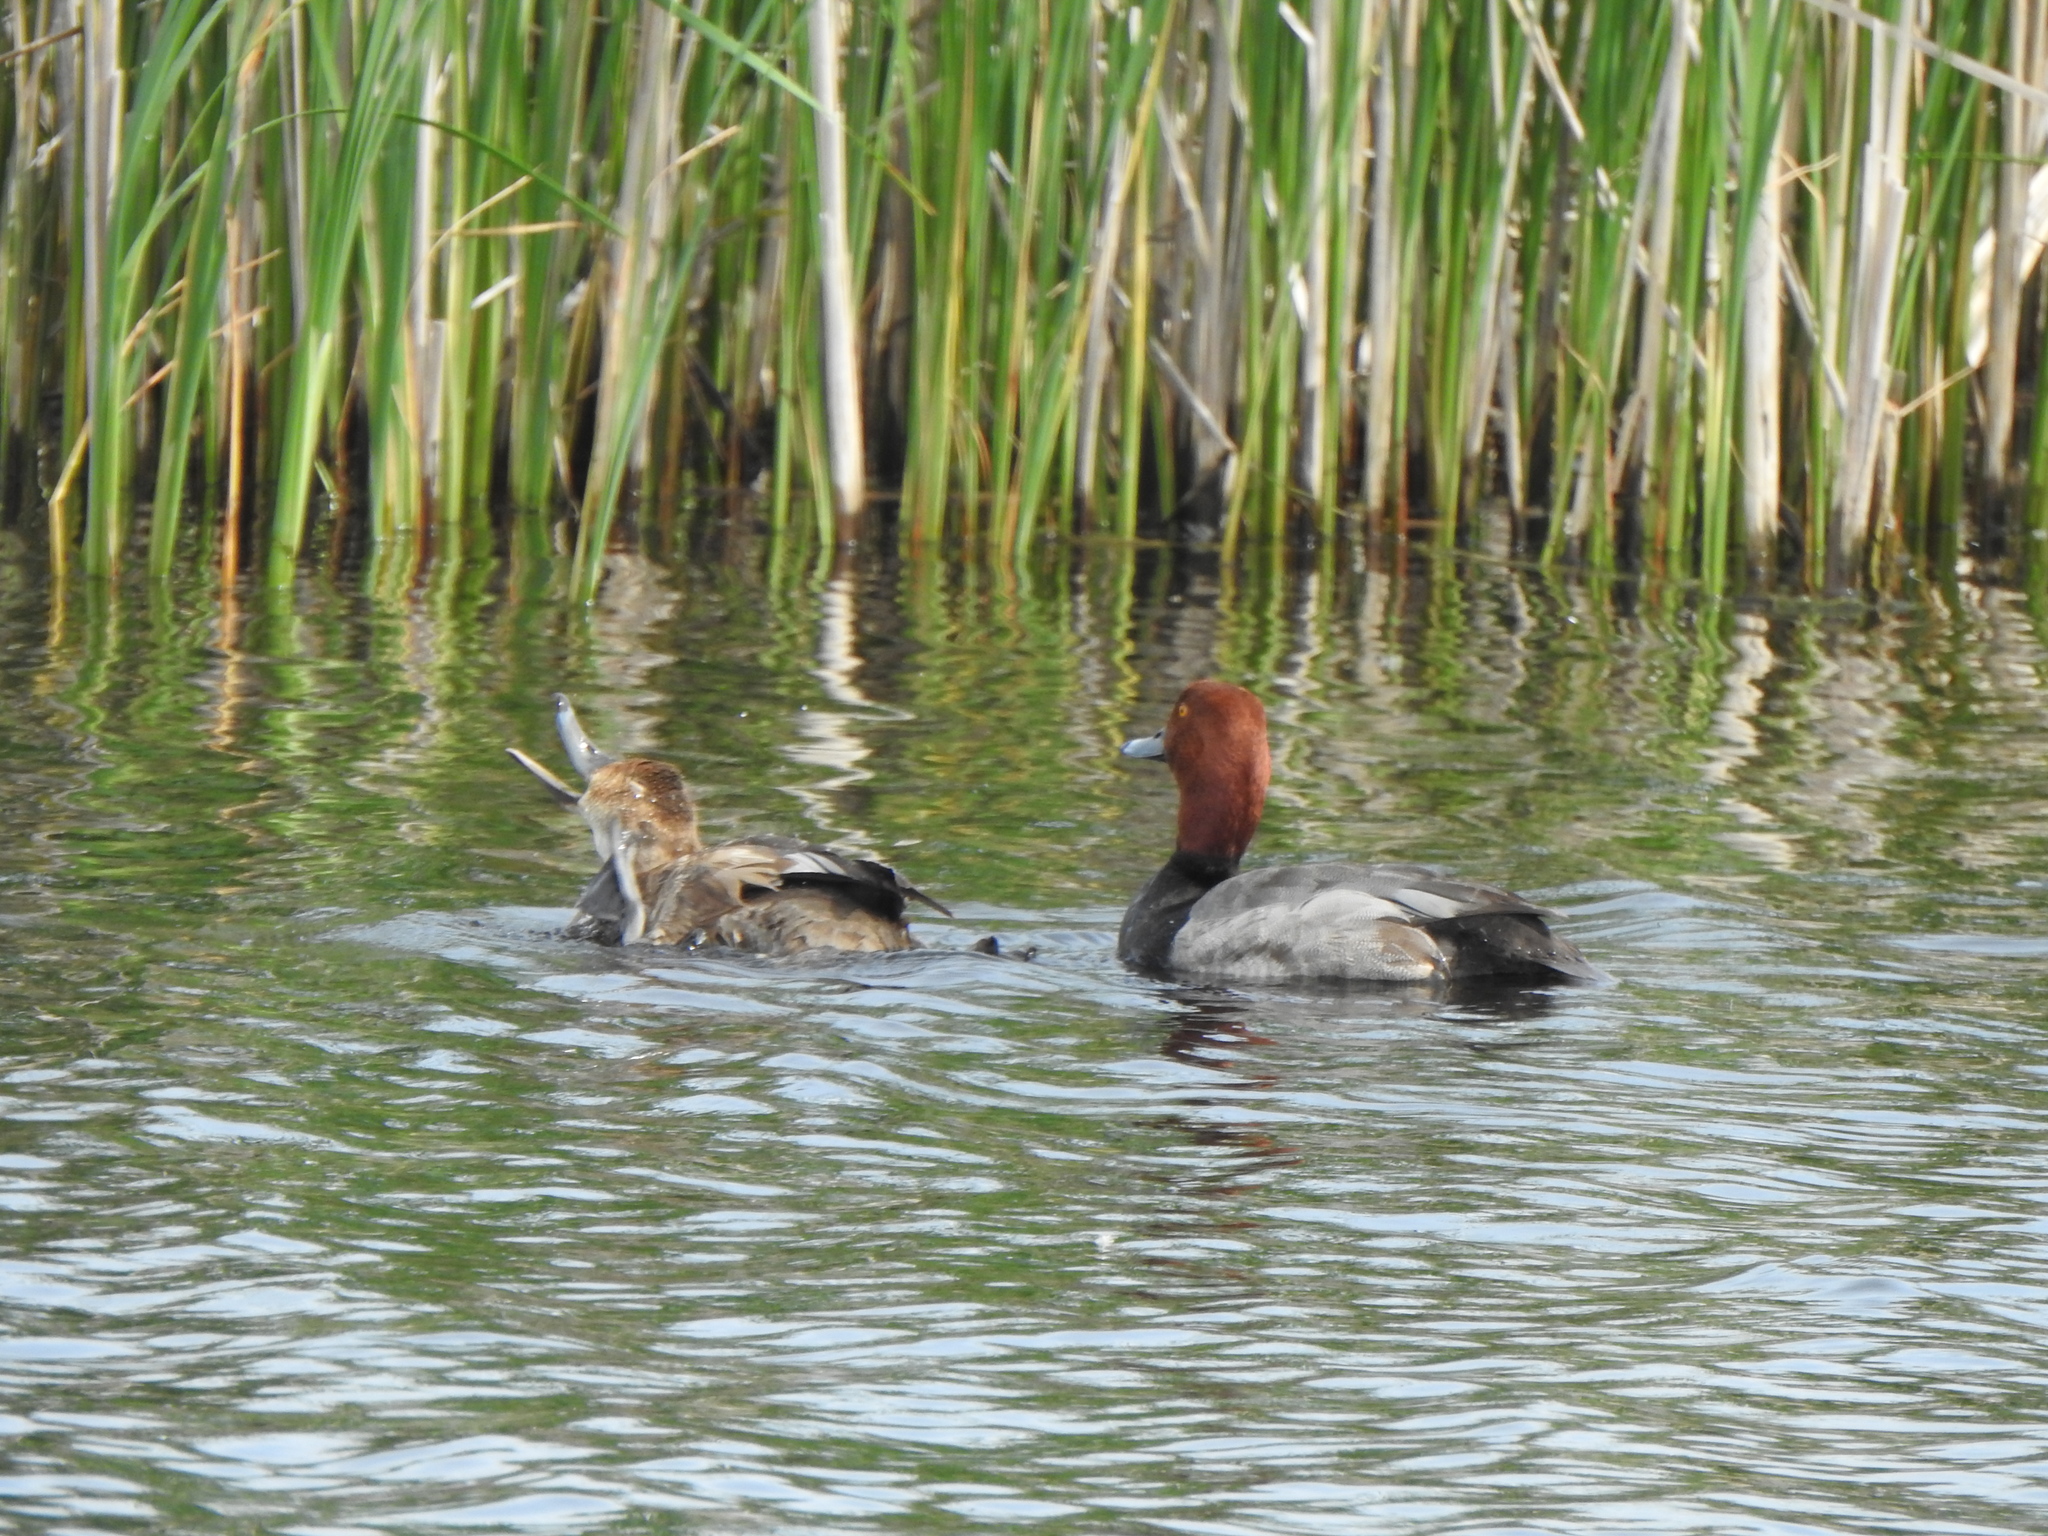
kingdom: Animalia
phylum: Chordata
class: Aves
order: Anseriformes
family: Anatidae
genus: Aythya
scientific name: Aythya americana
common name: Redhead
